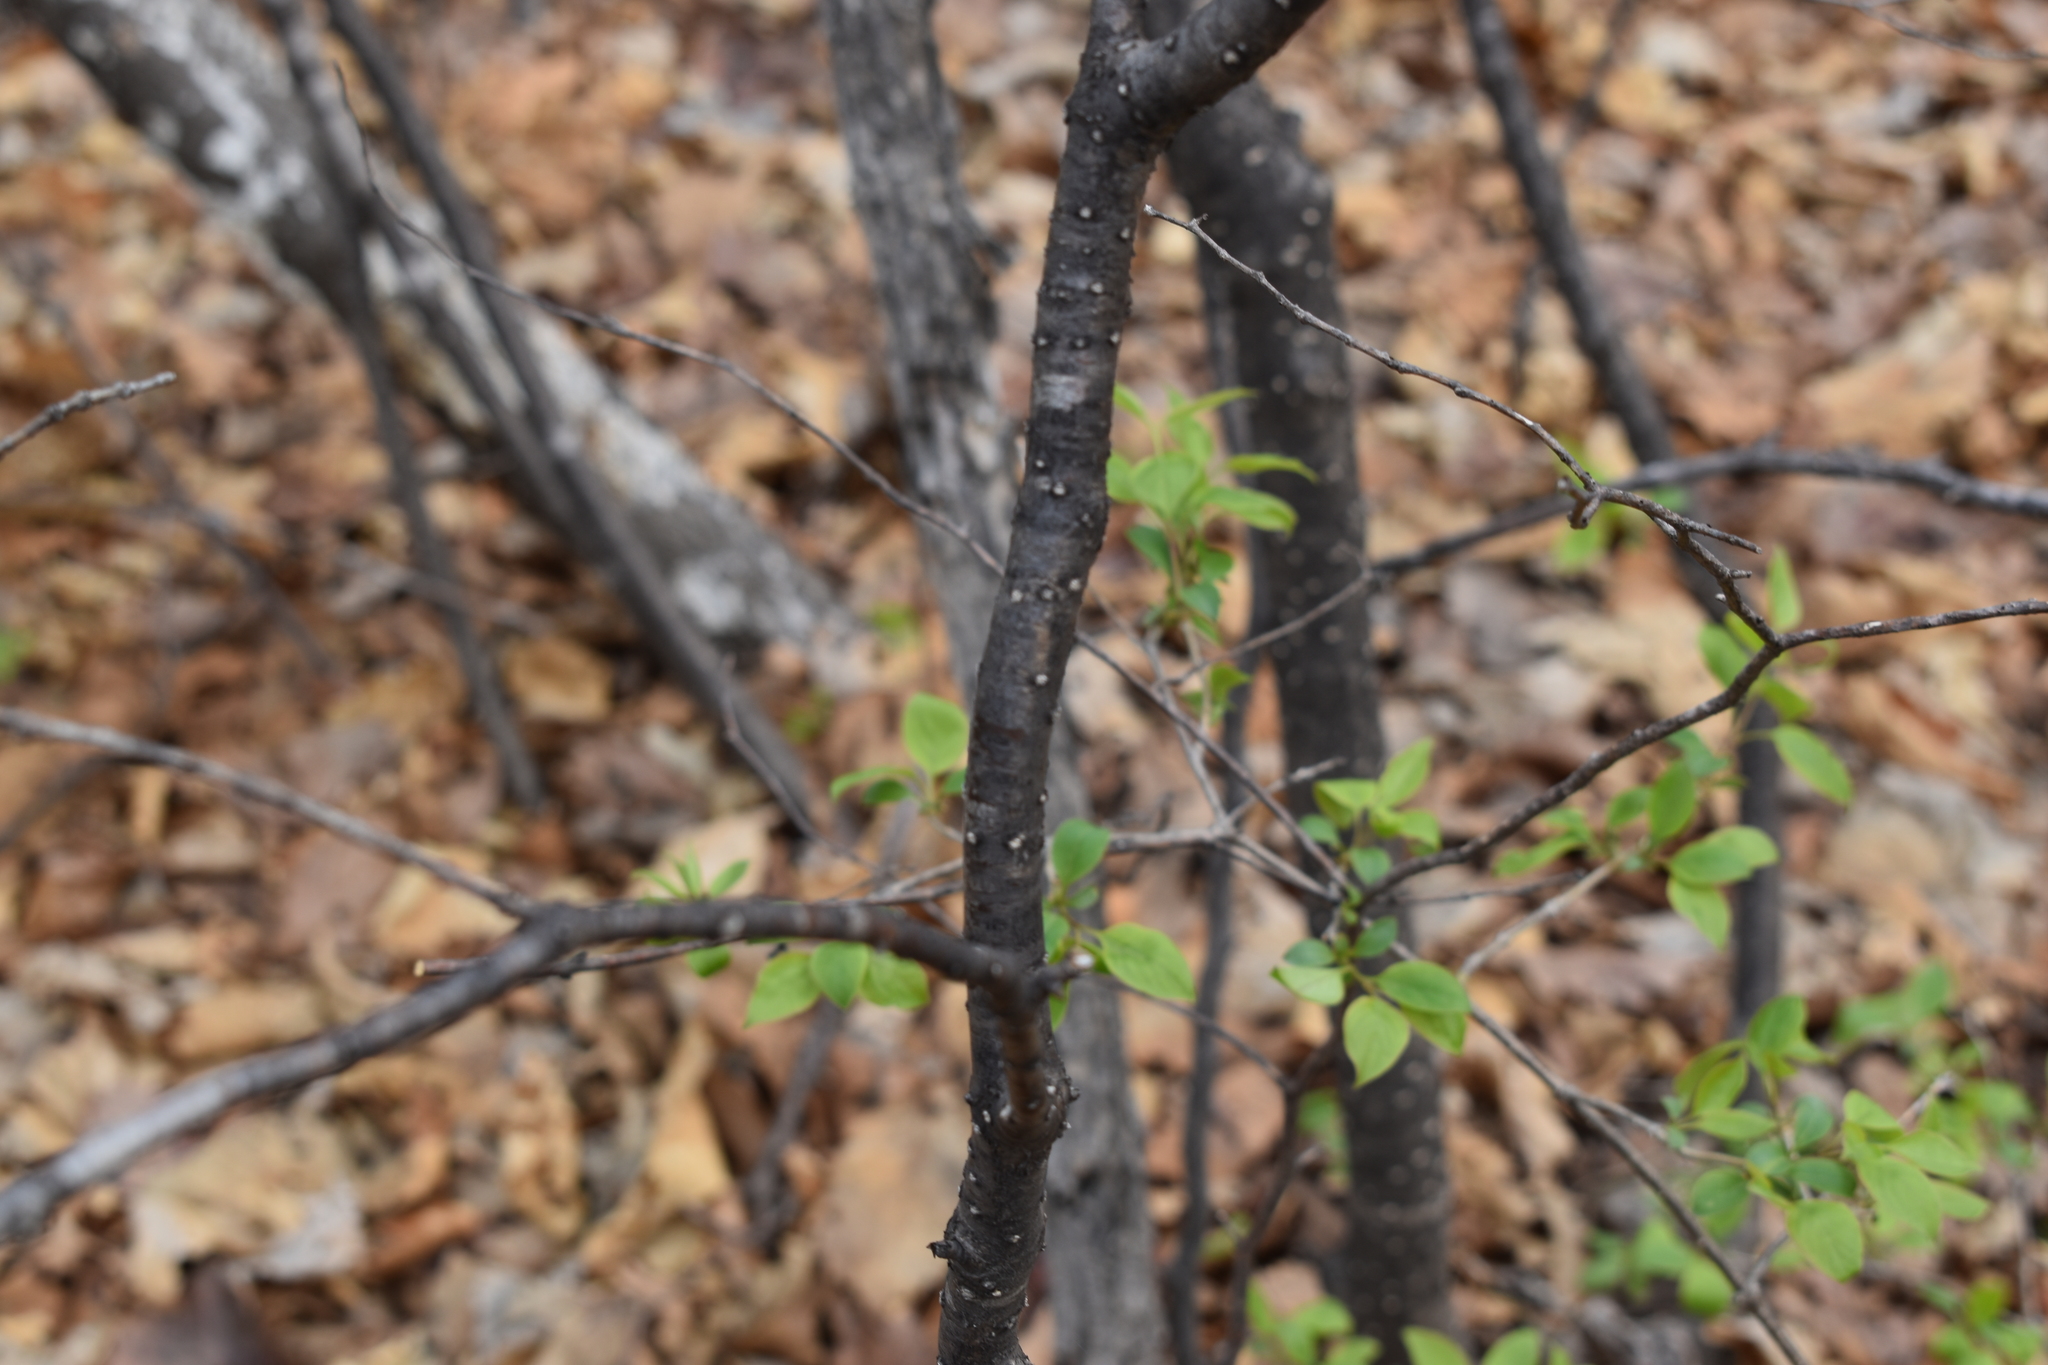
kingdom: Plantae
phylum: Tracheophyta
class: Magnoliopsida
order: Lamiales
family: Oleaceae
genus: Syringa
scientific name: Syringa reticulata
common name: Japanese tree lilac
